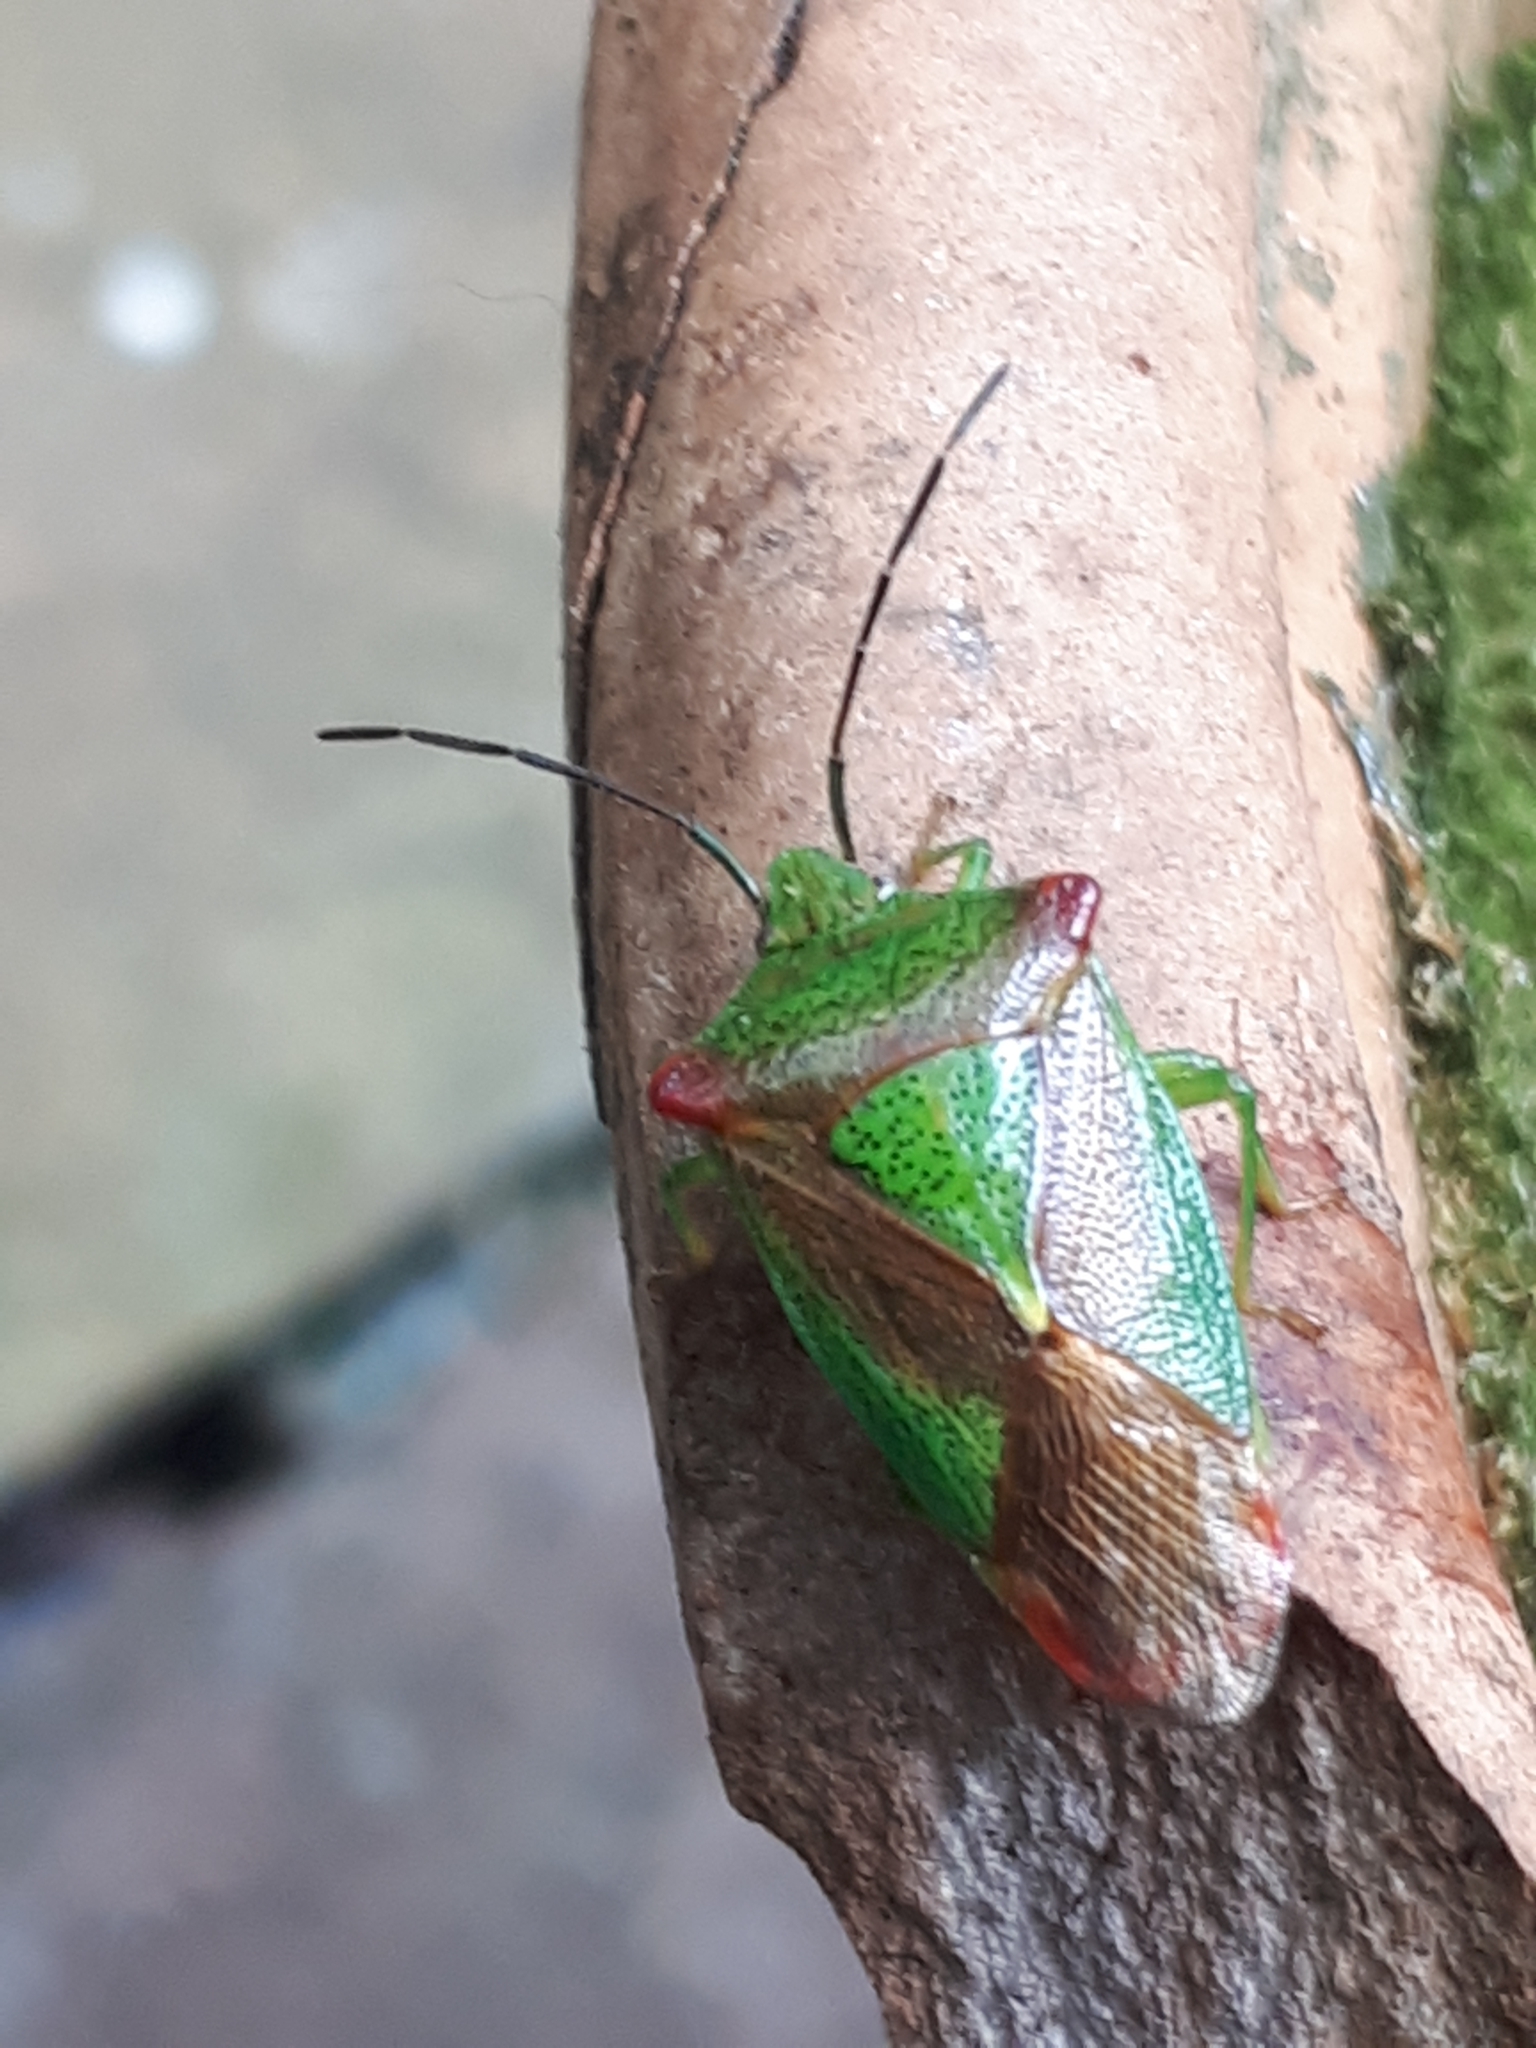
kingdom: Animalia
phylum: Arthropoda
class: Insecta
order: Hemiptera
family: Acanthosomatidae
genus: Acanthosoma
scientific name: Acanthosoma haemorrhoidale
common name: Hawthorn shieldbug
